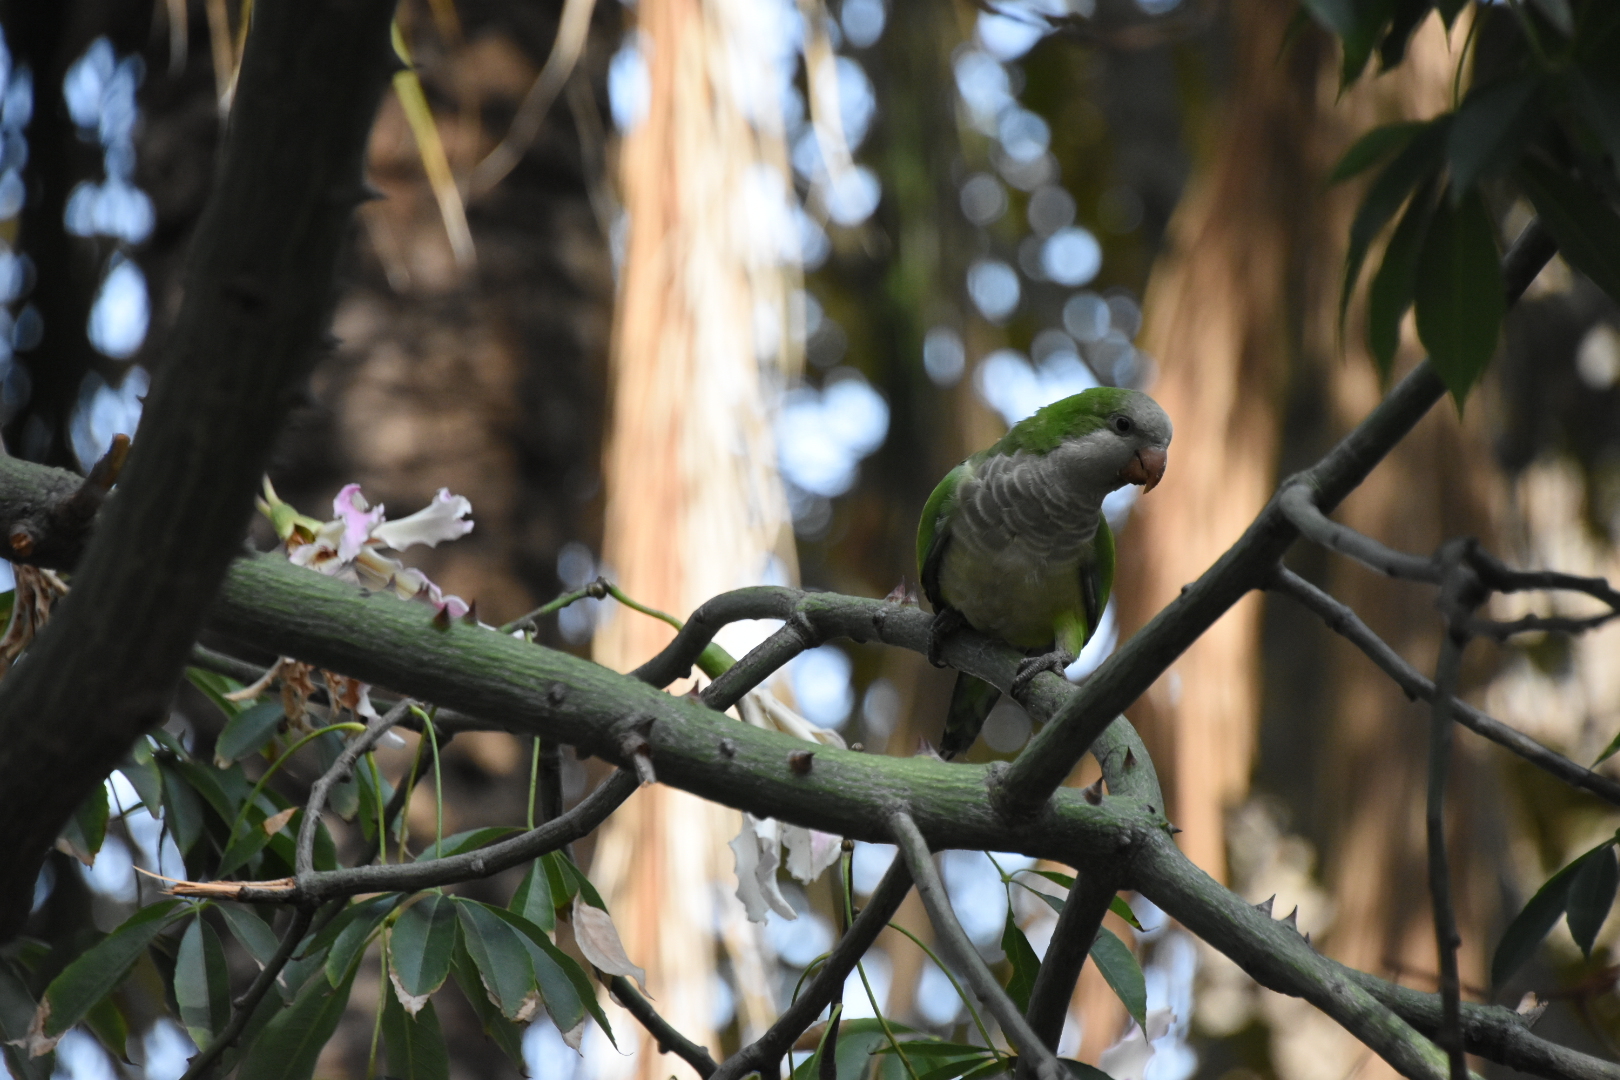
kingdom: Animalia
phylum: Chordata
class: Aves
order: Psittaciformes
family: Psittacidae
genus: Myiopsitta
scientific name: Myiopsitta monachus
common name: Monk parakeet
